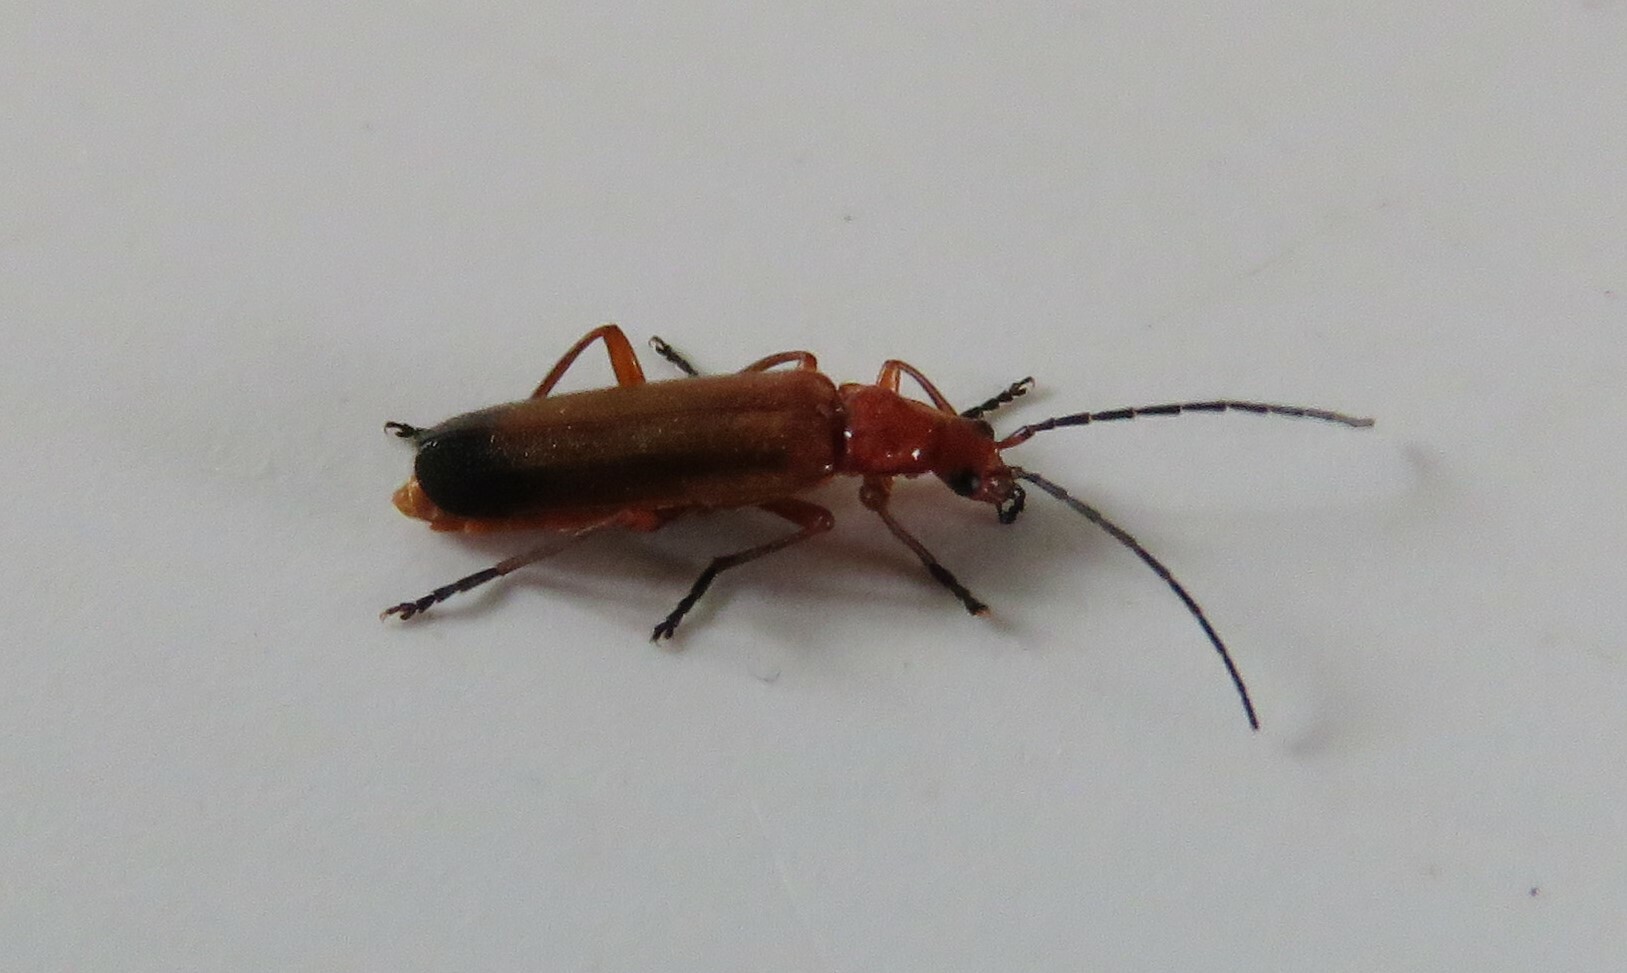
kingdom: Animalia
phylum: Arthropoda
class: Insecta
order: Coleoptera
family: Cantharidae
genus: Rhagonycha
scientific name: Rhagonycha fulva
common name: Common red soldier beetle
